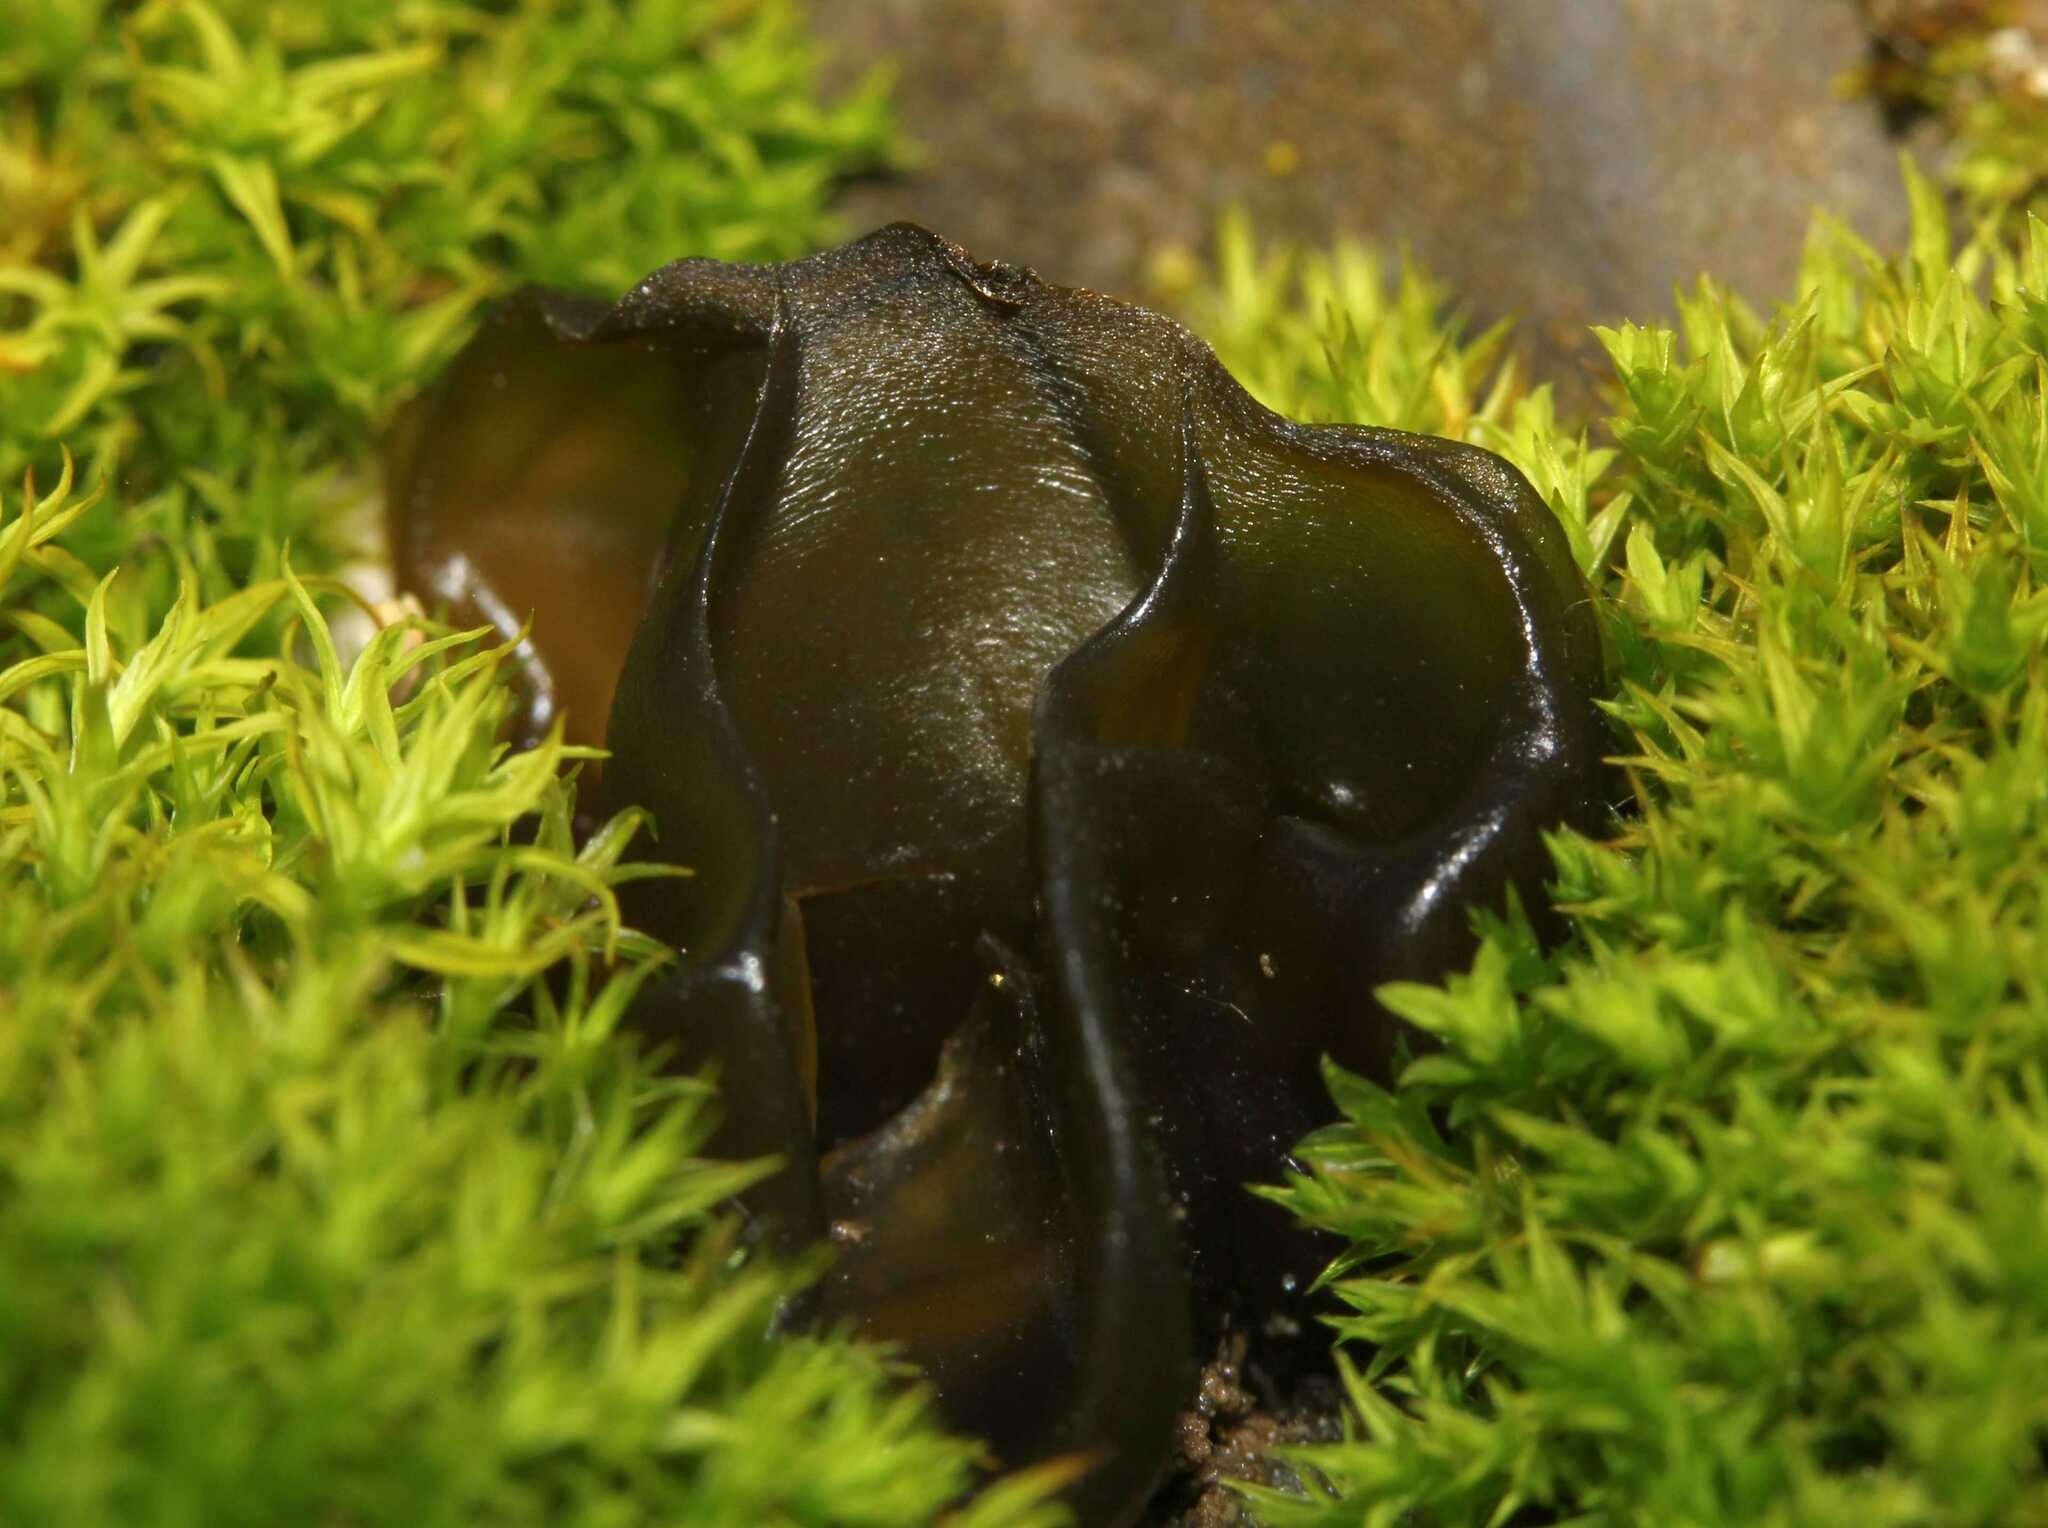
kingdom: Bacteria
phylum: Cyanobacteria
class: Cyanobacteriia
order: Cyanobacteriales
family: Nostocaceae
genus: Nostoc
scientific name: Nostoc commune
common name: Star jelly
